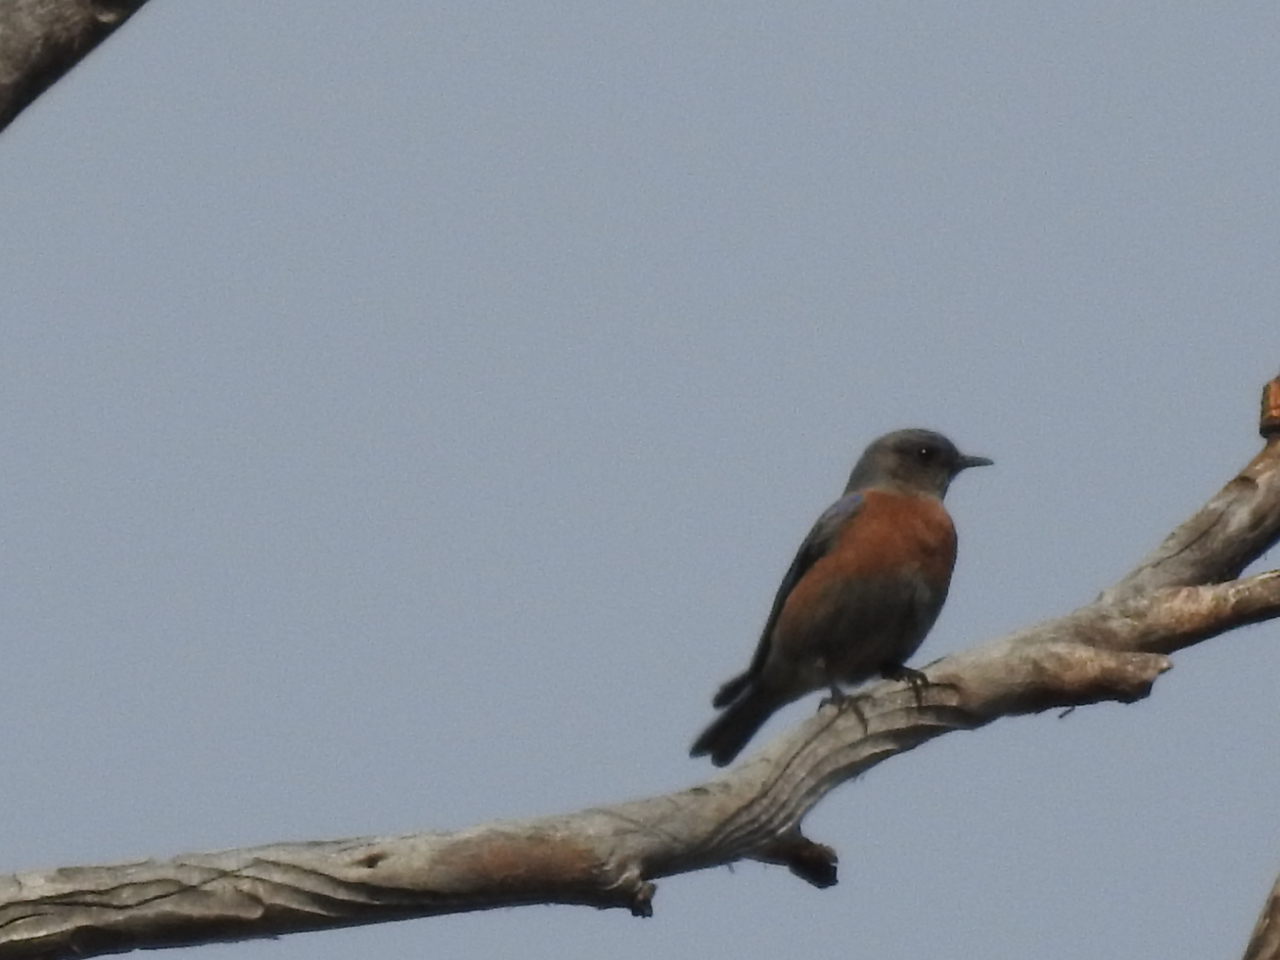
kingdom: Animalia
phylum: Chordata
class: Aves
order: Passeriformes
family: Turdidae
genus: Sialia
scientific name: Sialia mexicana
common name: Western bluebird
